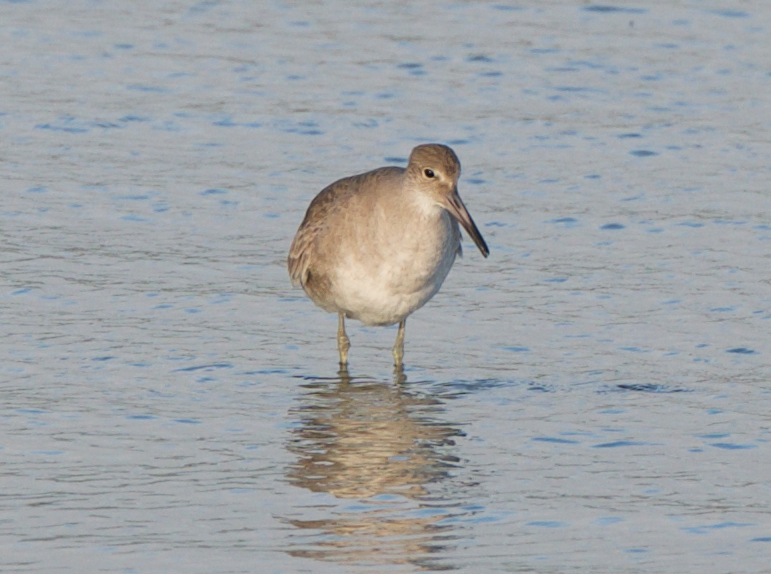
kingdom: Animalia
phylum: Chordata
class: Aves
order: Charadriiformes
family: Scolopacidae
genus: Tringa
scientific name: Tringa semipalmata
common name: Willet
